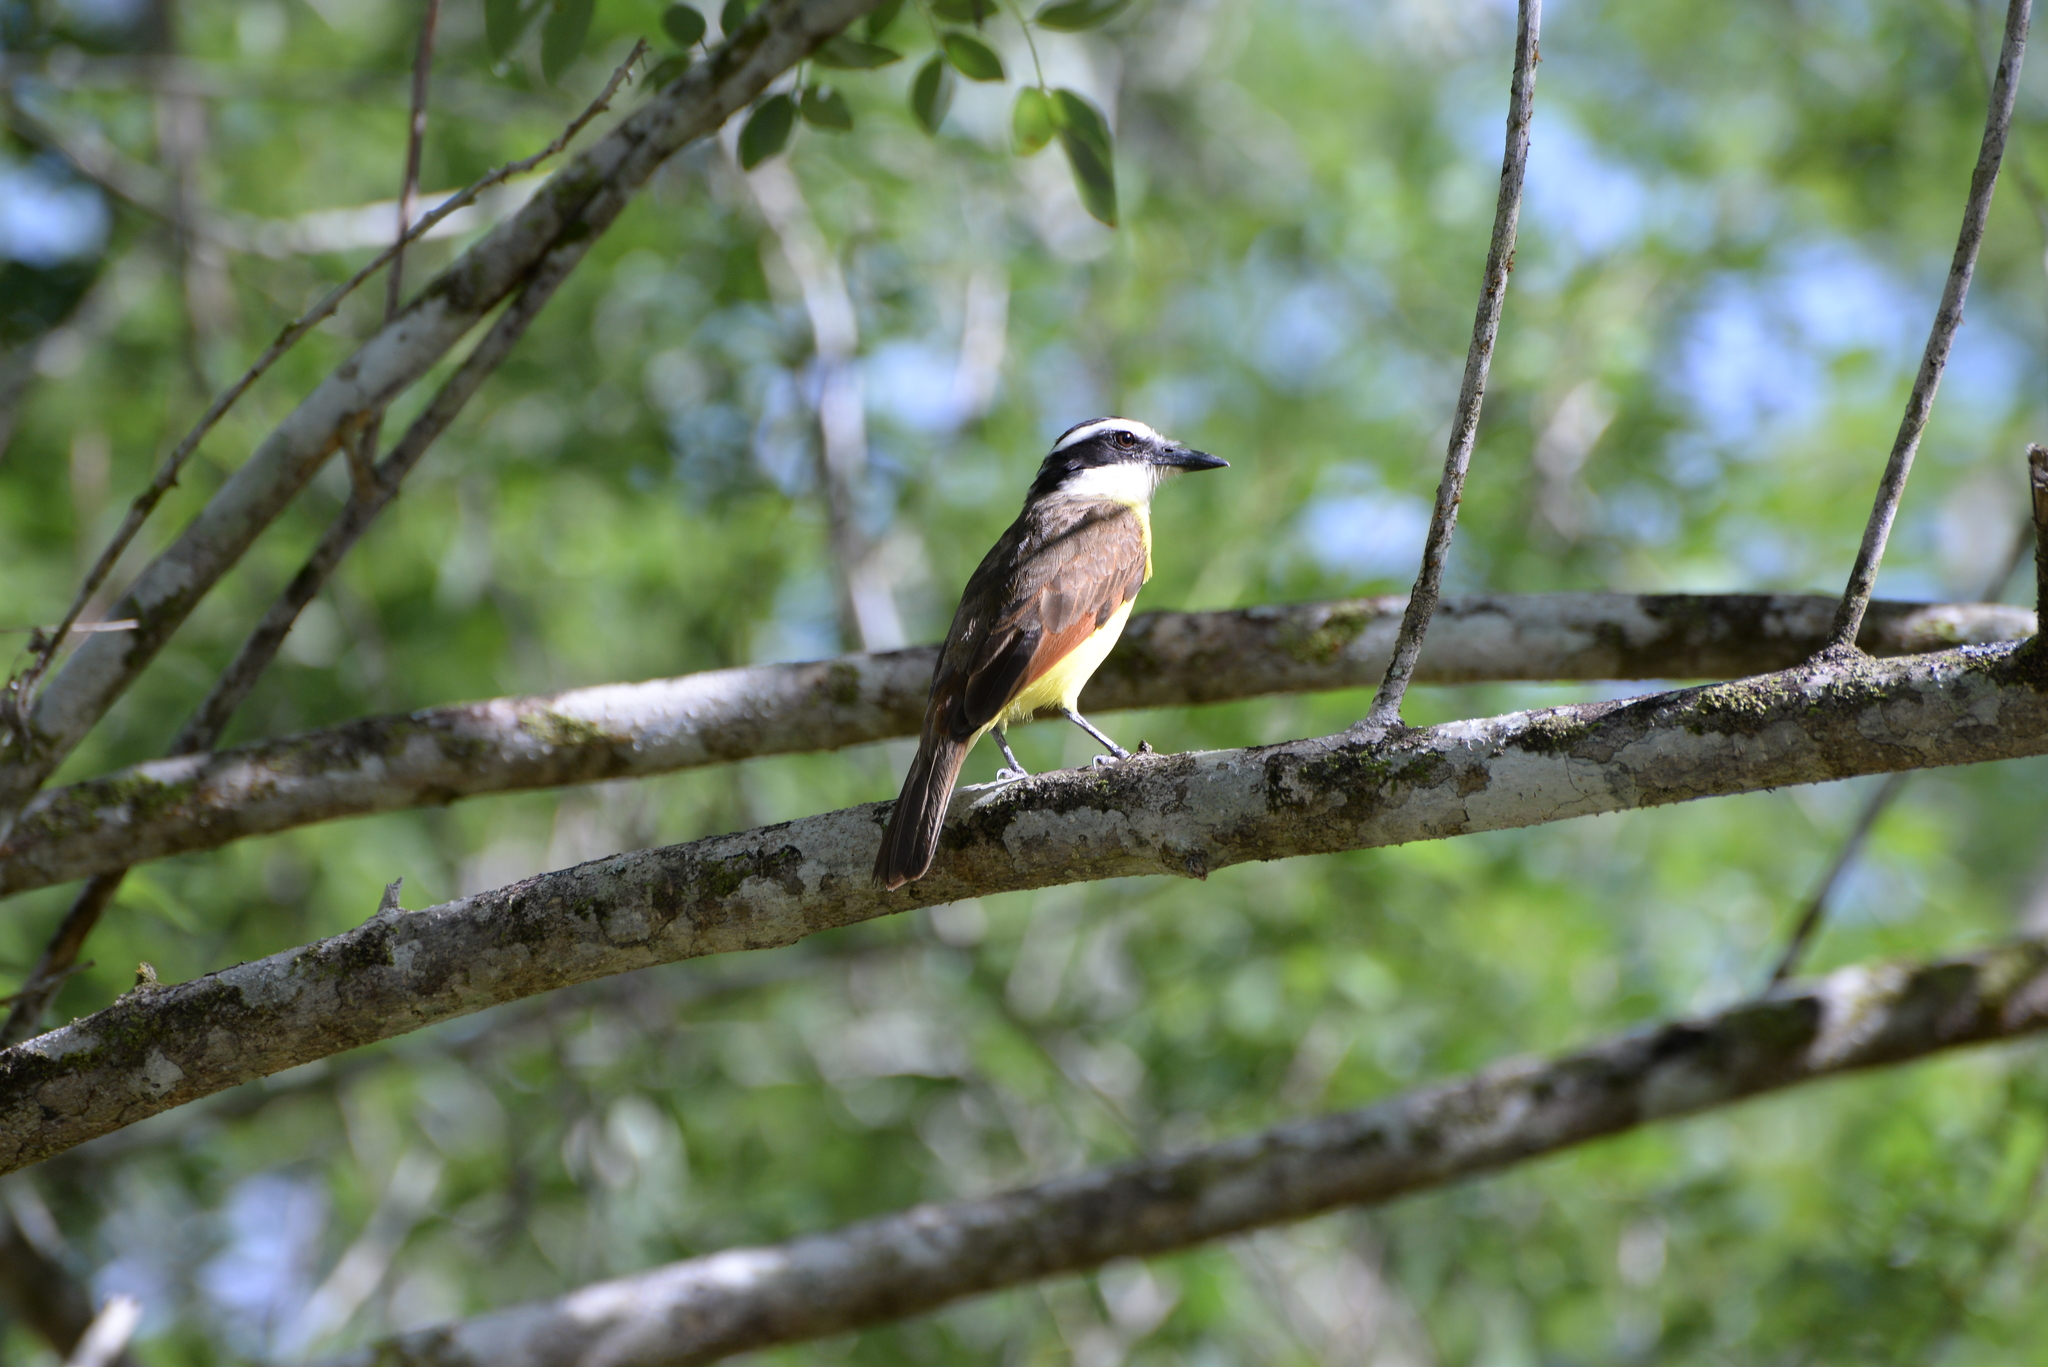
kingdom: Animalia
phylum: Chordata
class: Aves
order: Passeriformes
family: Tyrannidae
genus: Pitangus
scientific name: Pitangus sulphuratus
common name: Great kiskadee
